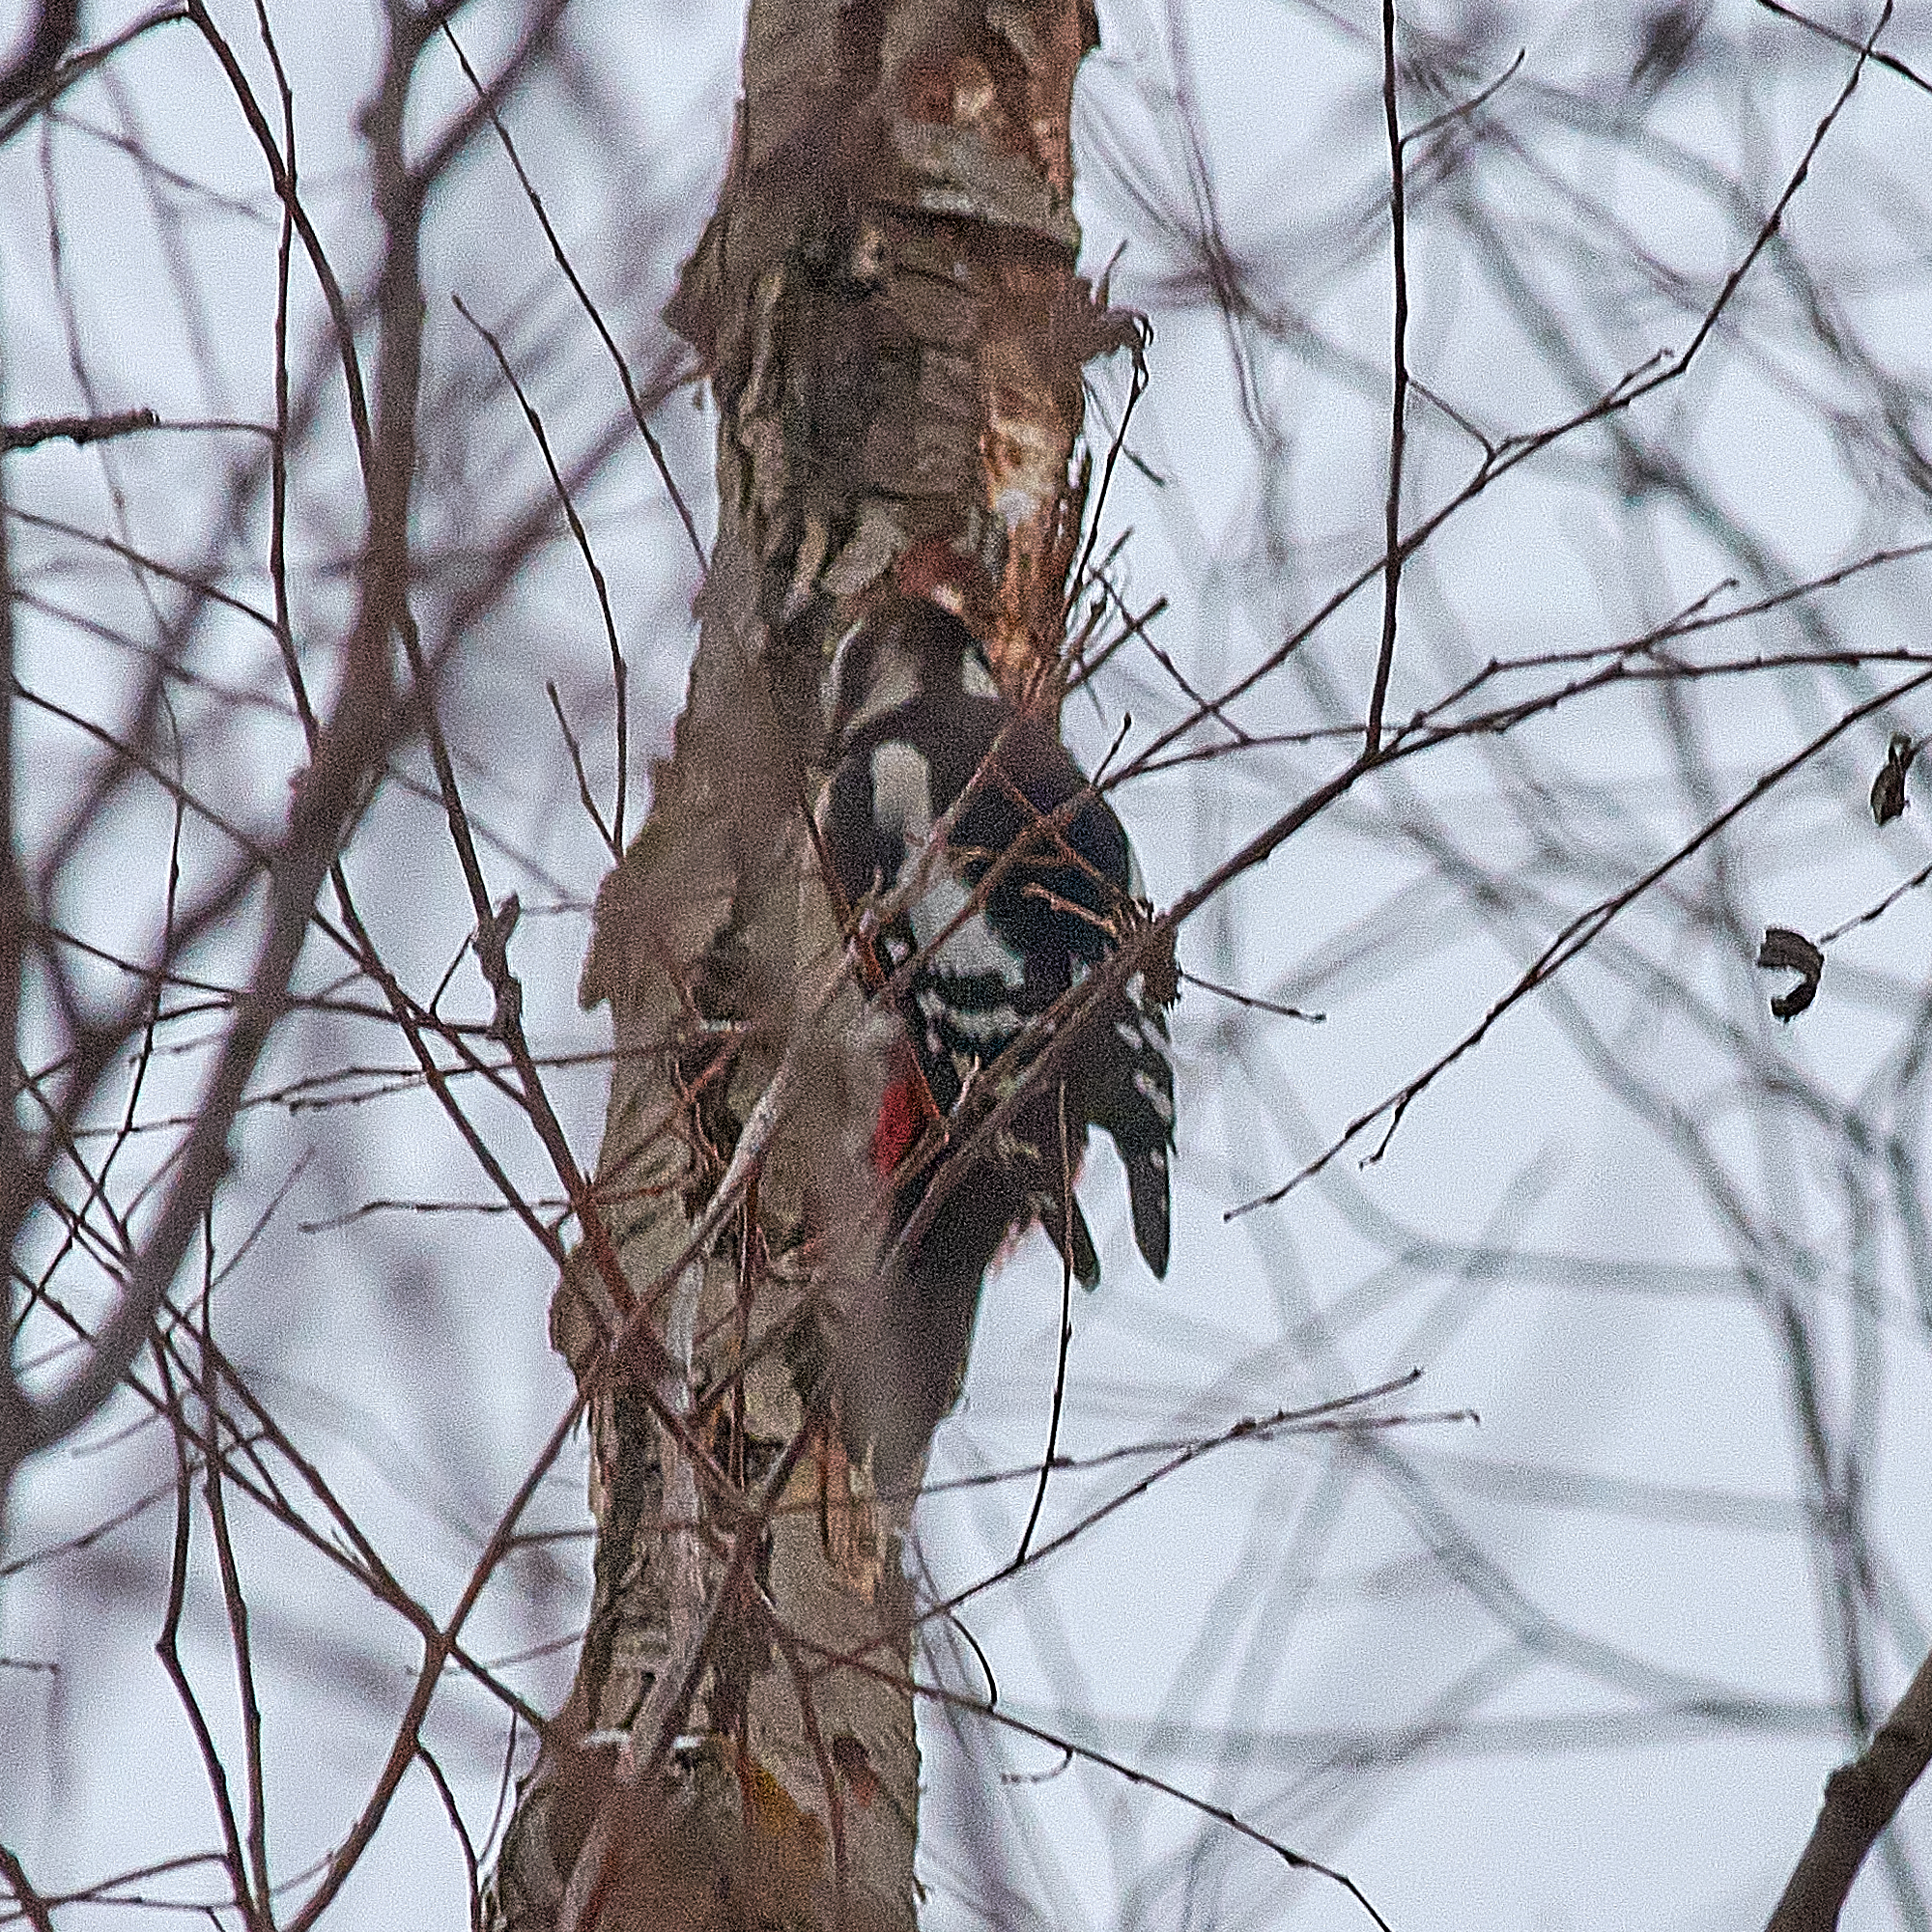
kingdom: Animalia
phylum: Chordata
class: Aves
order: Piciformes
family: Picidae
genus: Dendrocopos
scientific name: Dendrocopos major
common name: Great spotted woodpecker
